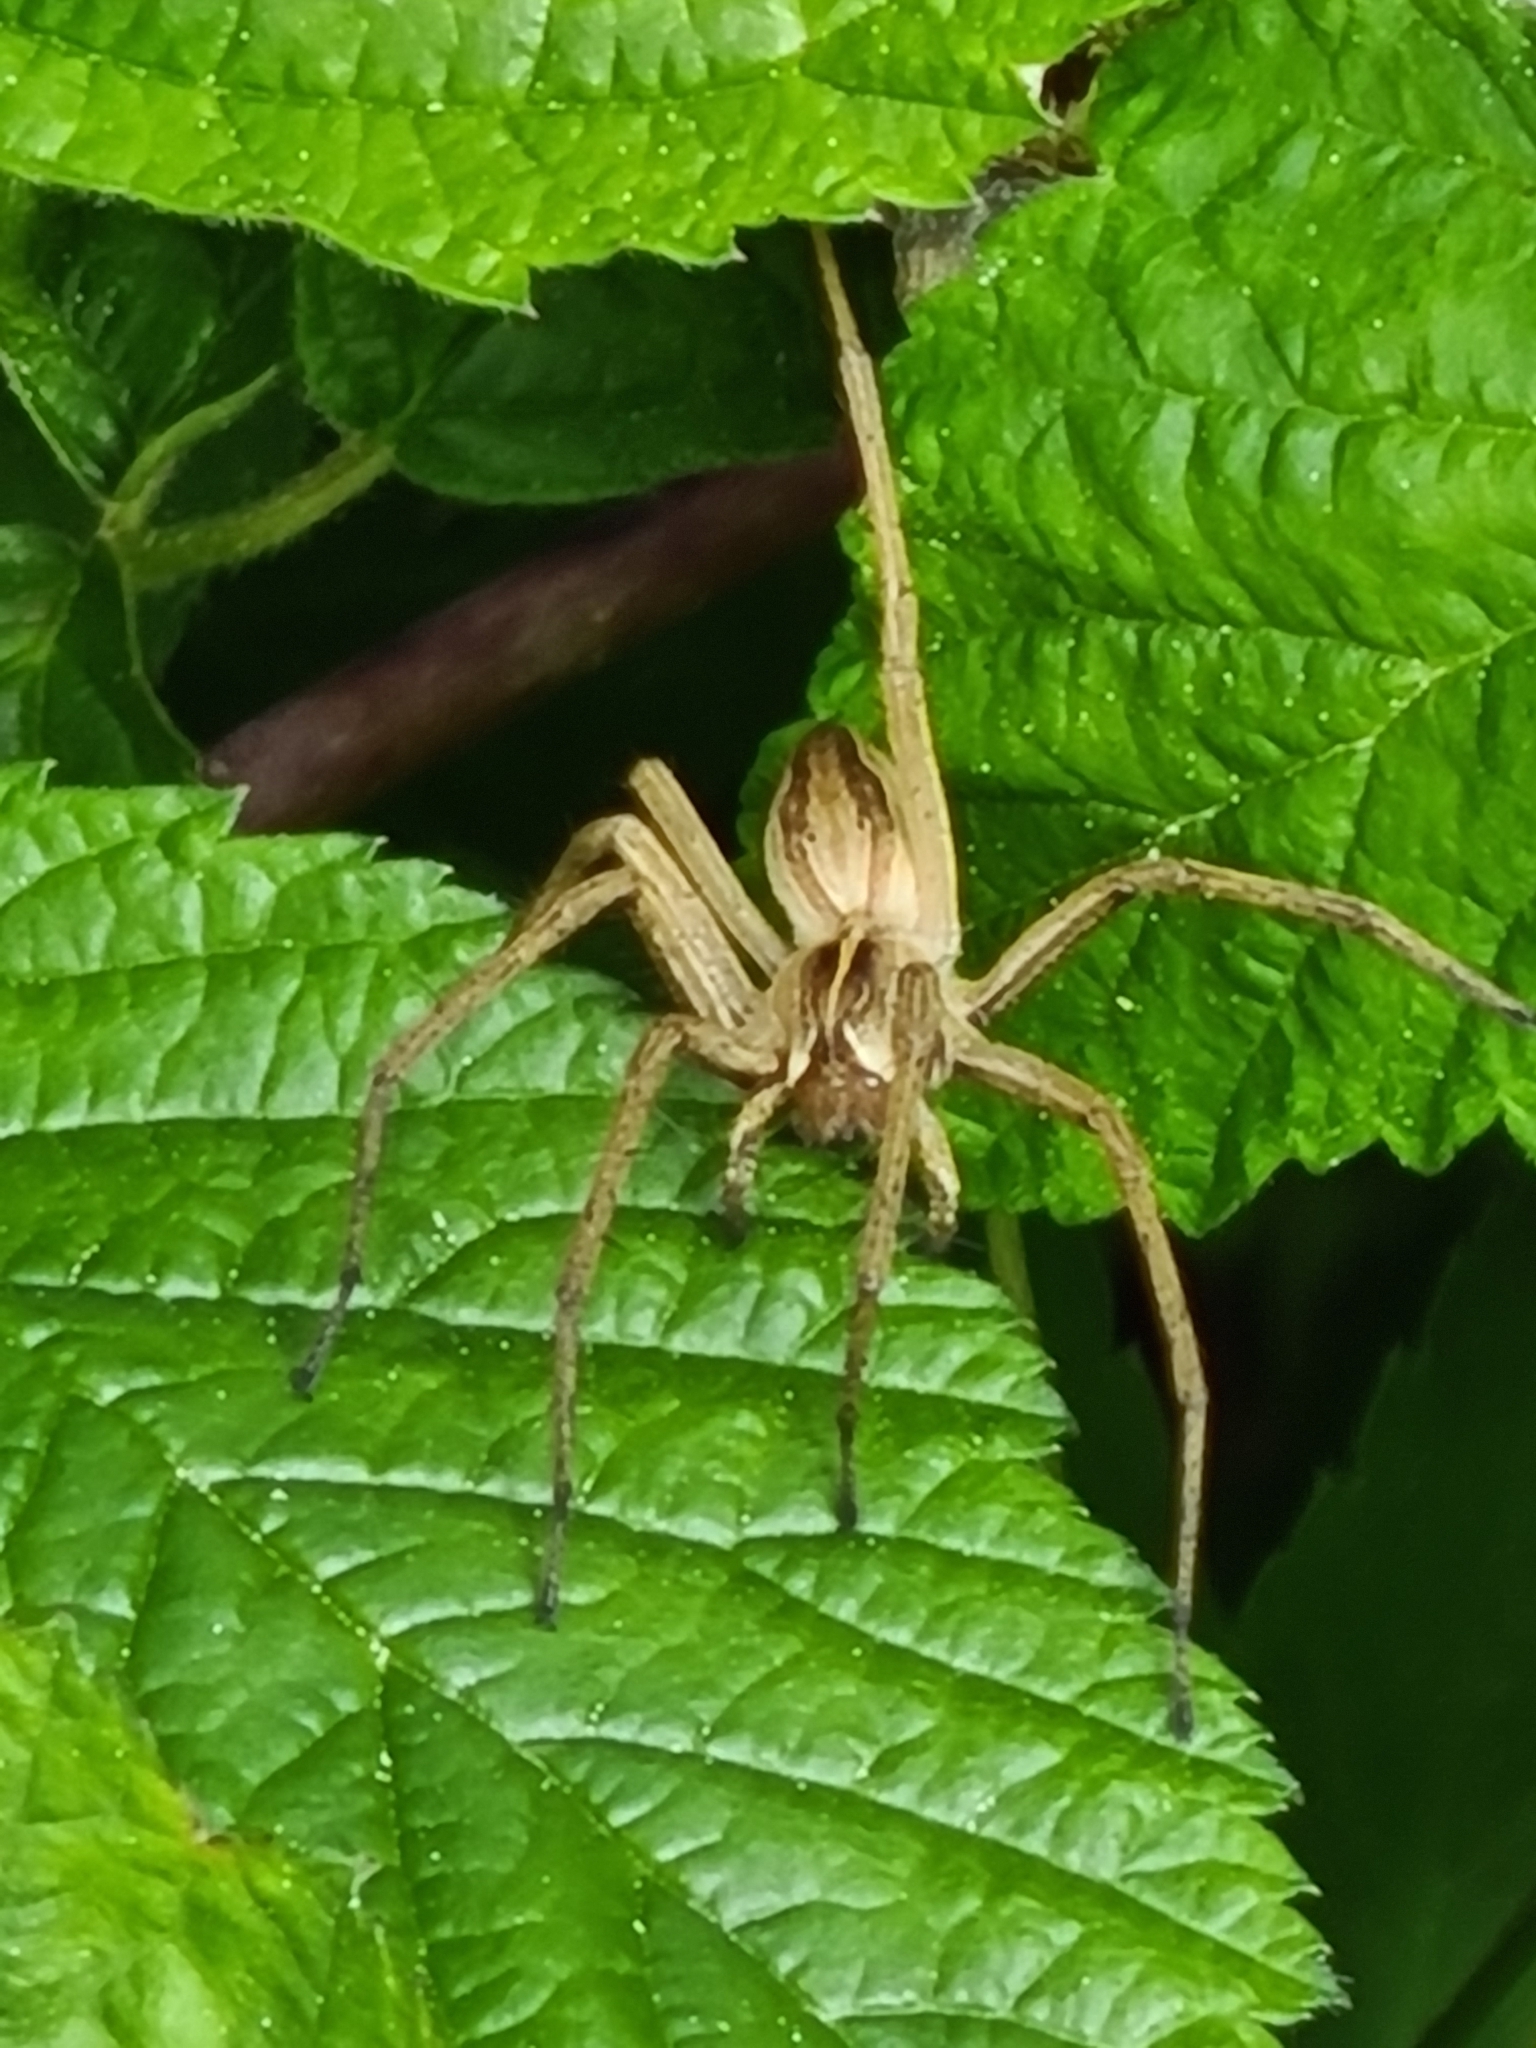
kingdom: Animalia
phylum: Arthropoda
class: Arachnida
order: Araneae
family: Pisauridae
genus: Pisaura
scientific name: Pisaura mirabilis
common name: Tent spider
